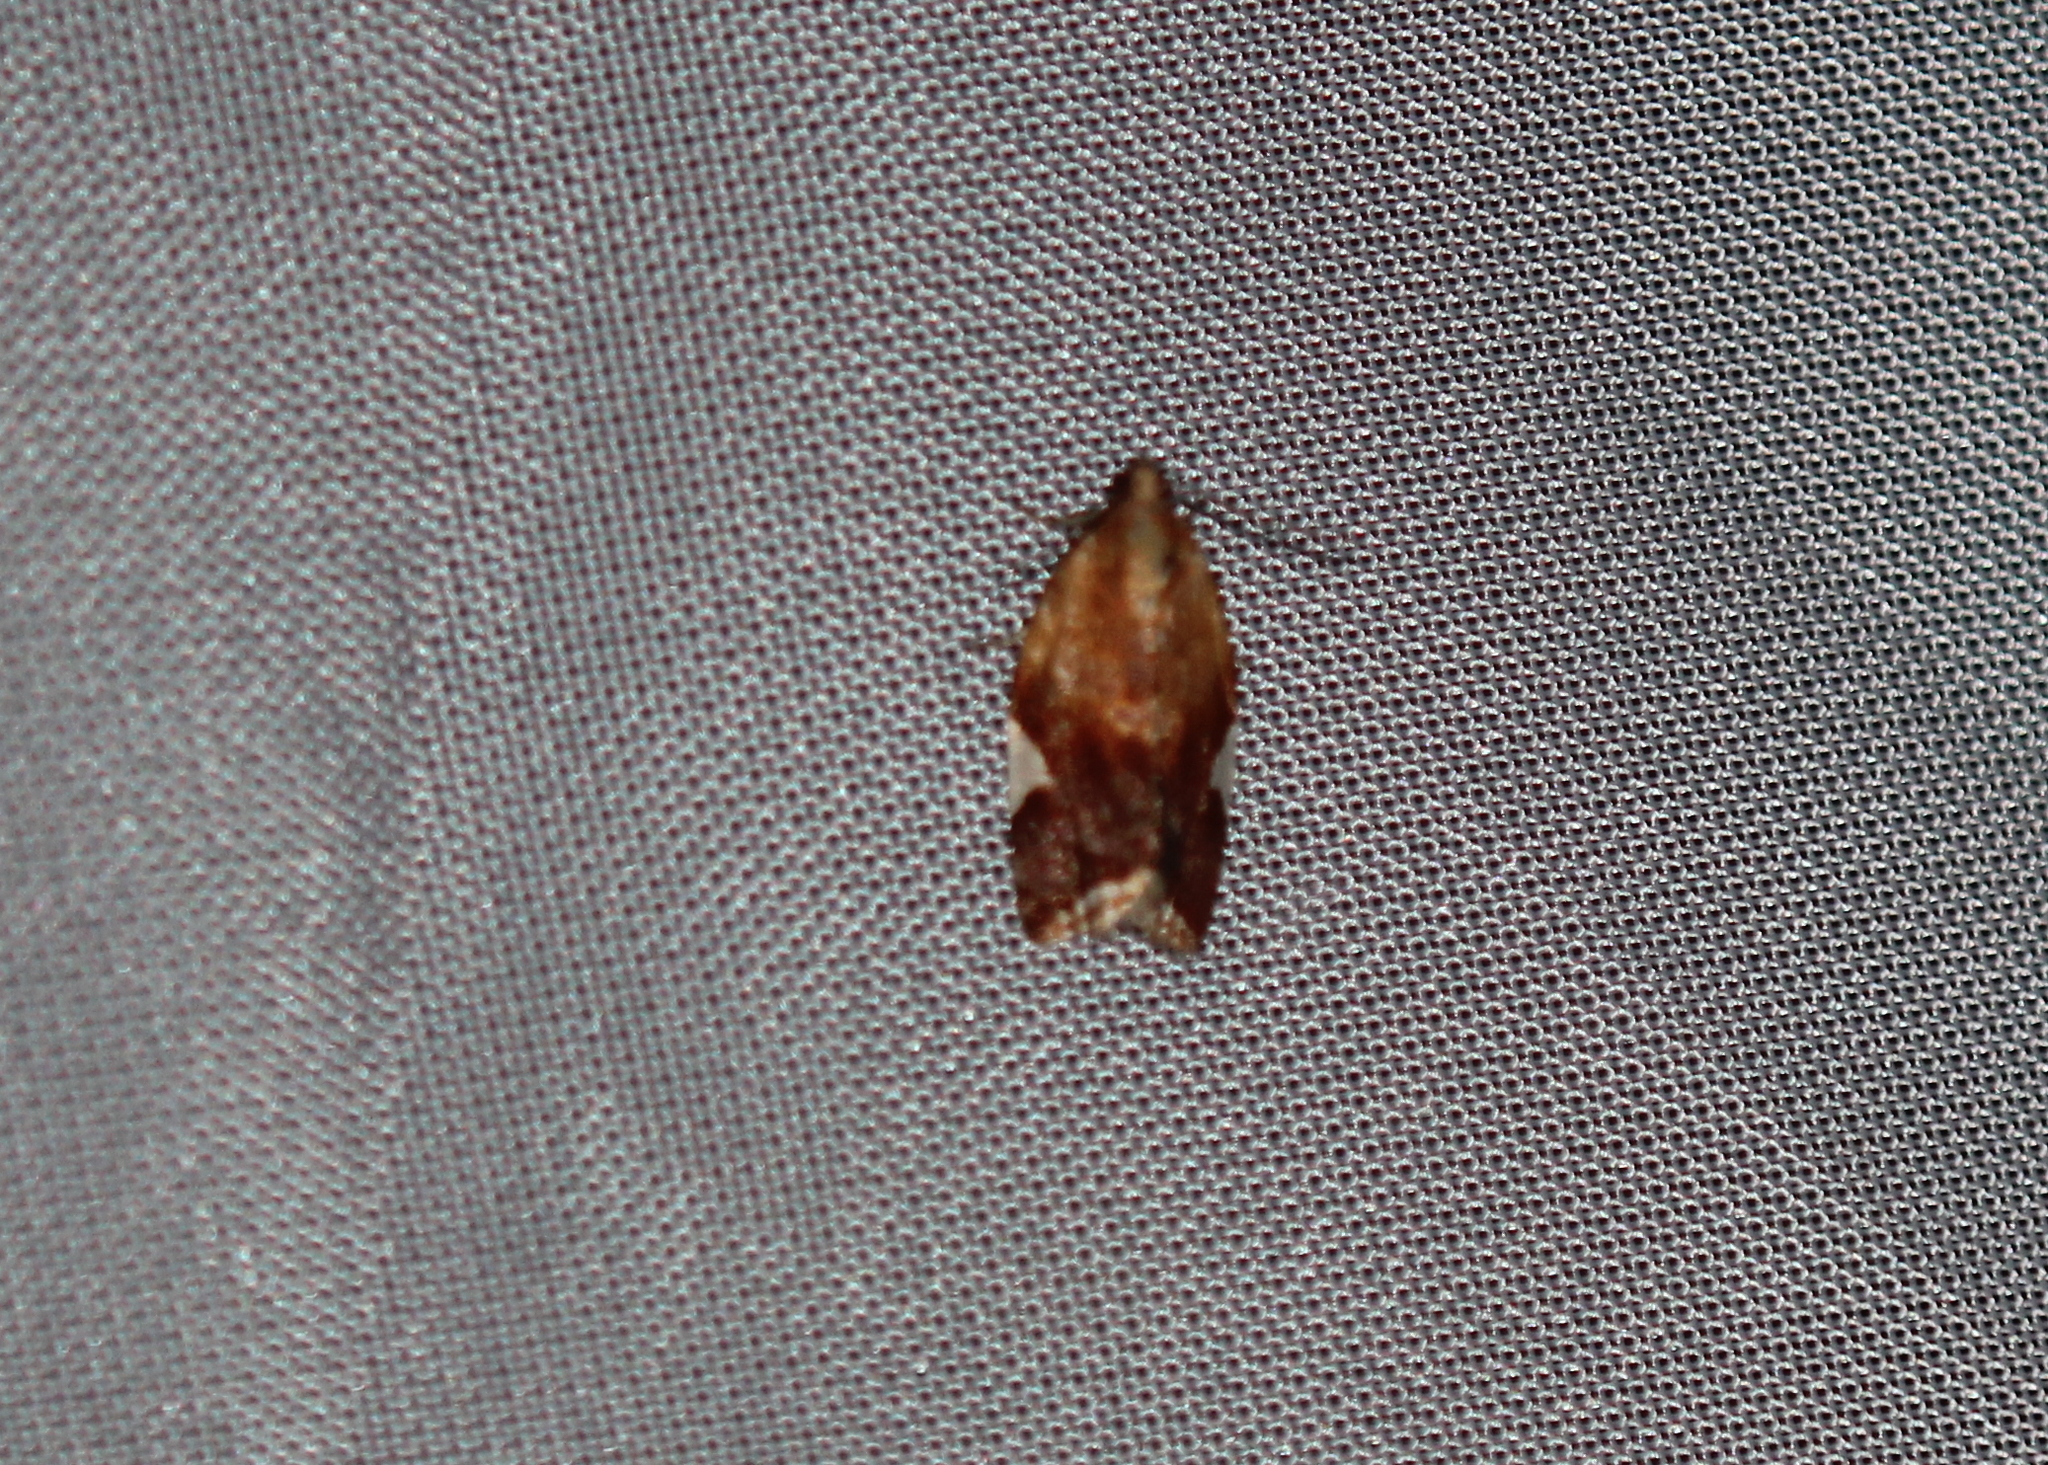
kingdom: Animalia
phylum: Arthropoda
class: Insecta
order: Lepidoptera
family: Tortricidae
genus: Clepsis
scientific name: Clepsis persicana
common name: White triangle tortrix
